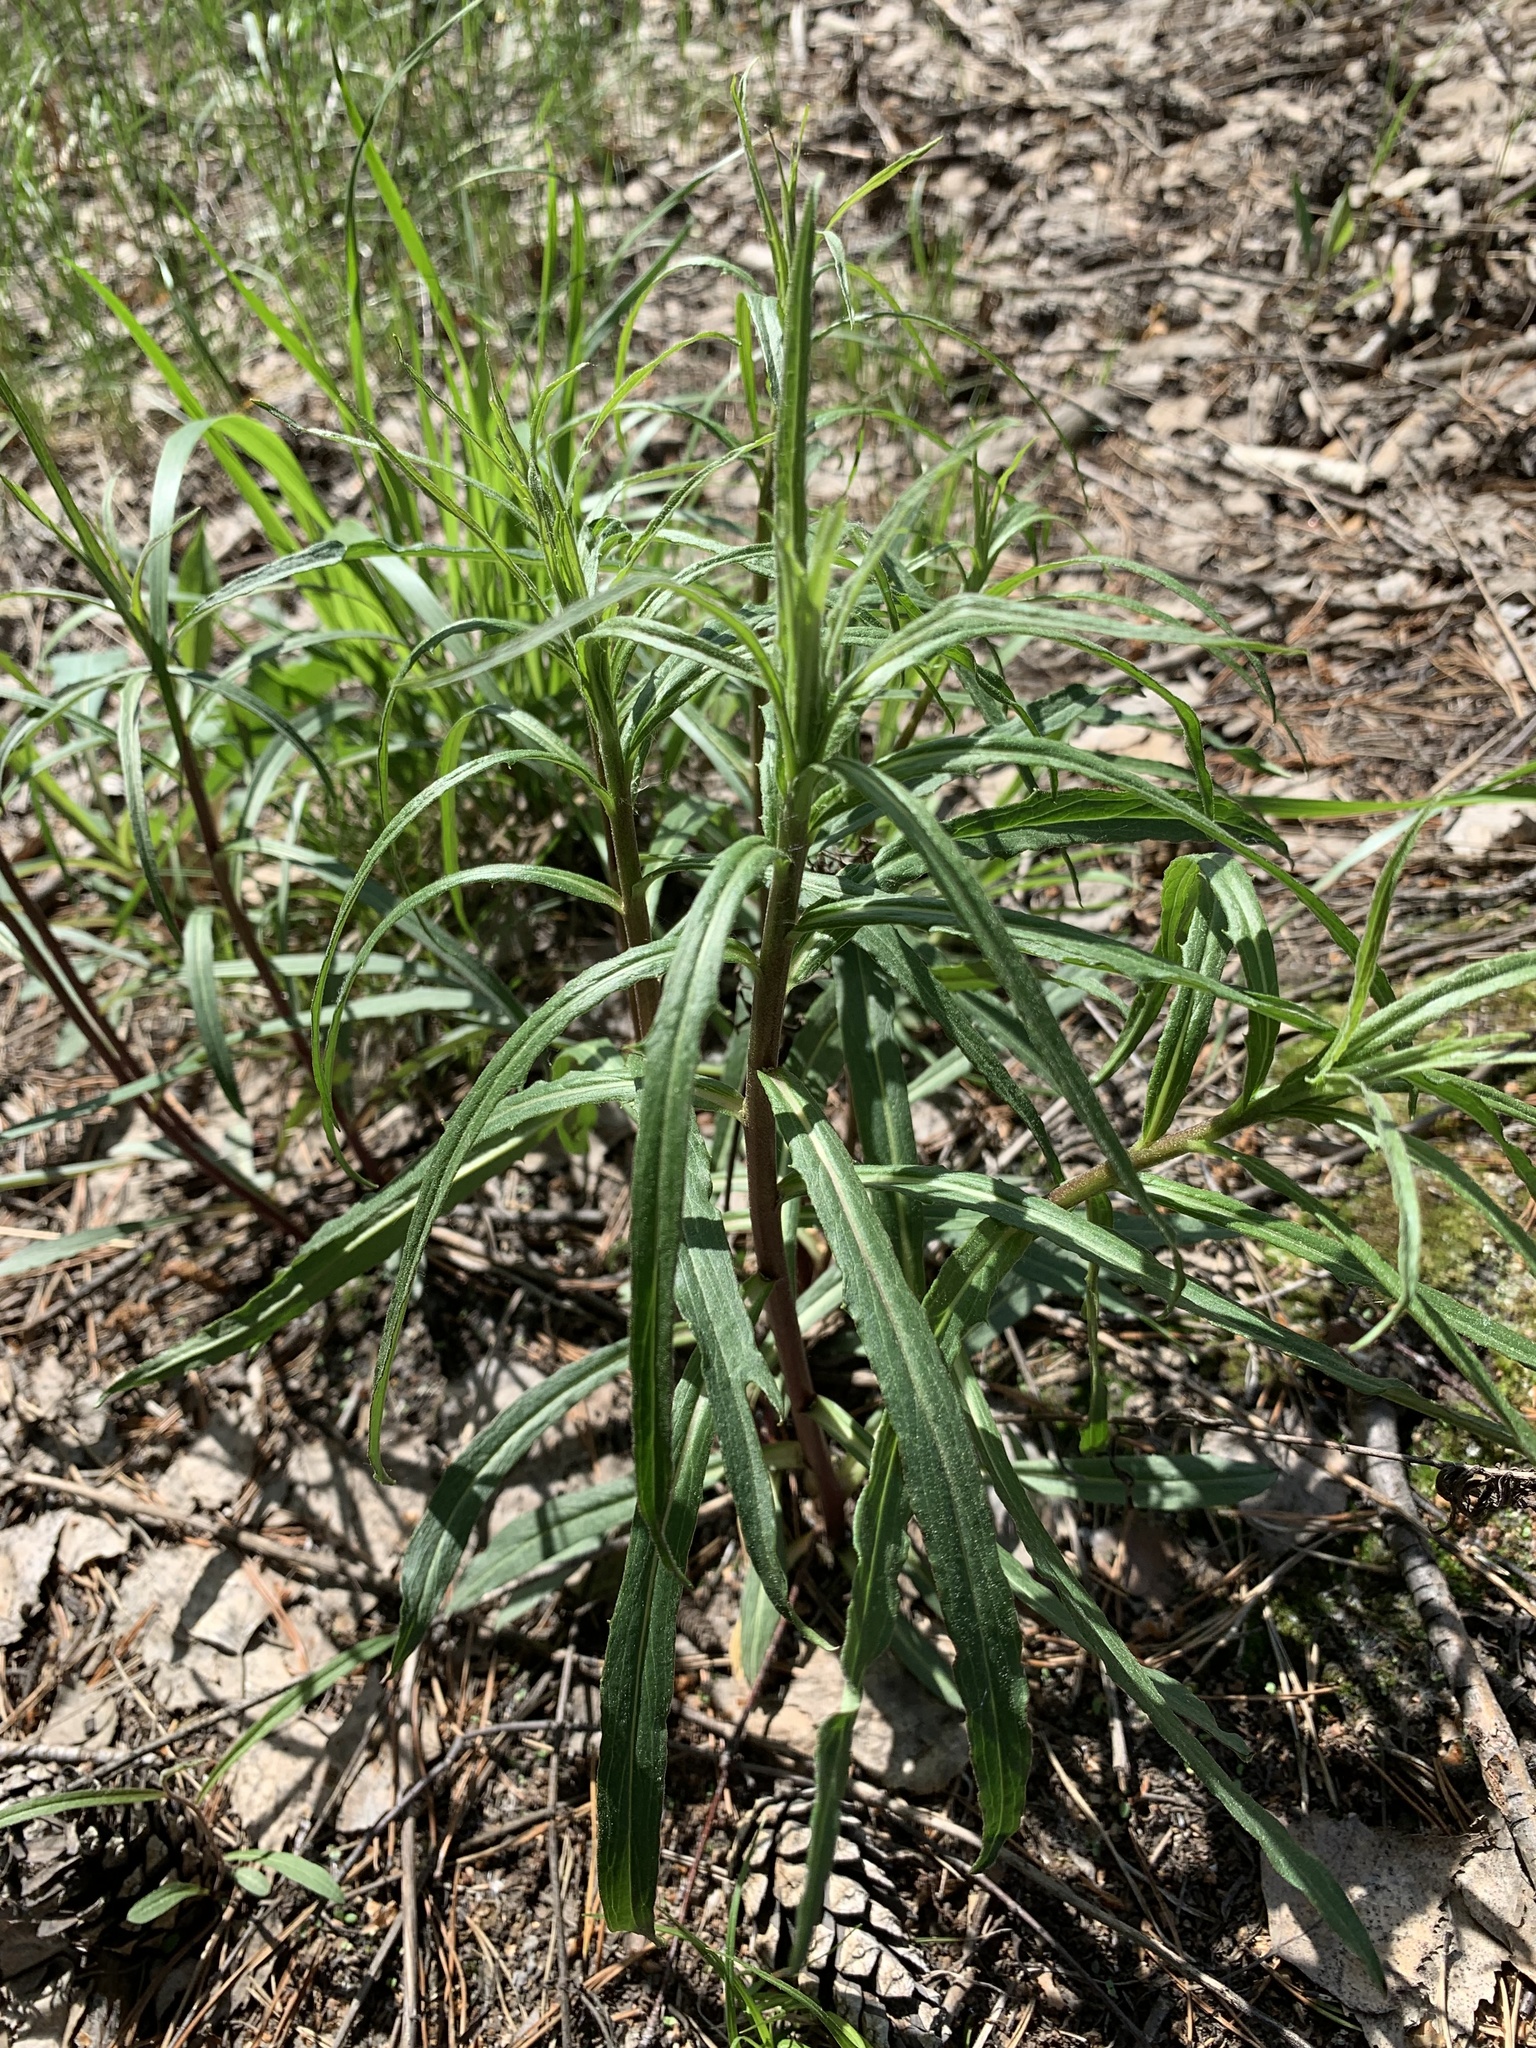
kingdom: Plantae
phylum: Tracheophyta
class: Magnoliopsida
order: Asterales
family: Asteraceae
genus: Hieracium
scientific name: Hieracium umbellatum
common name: Northern hawkweed
